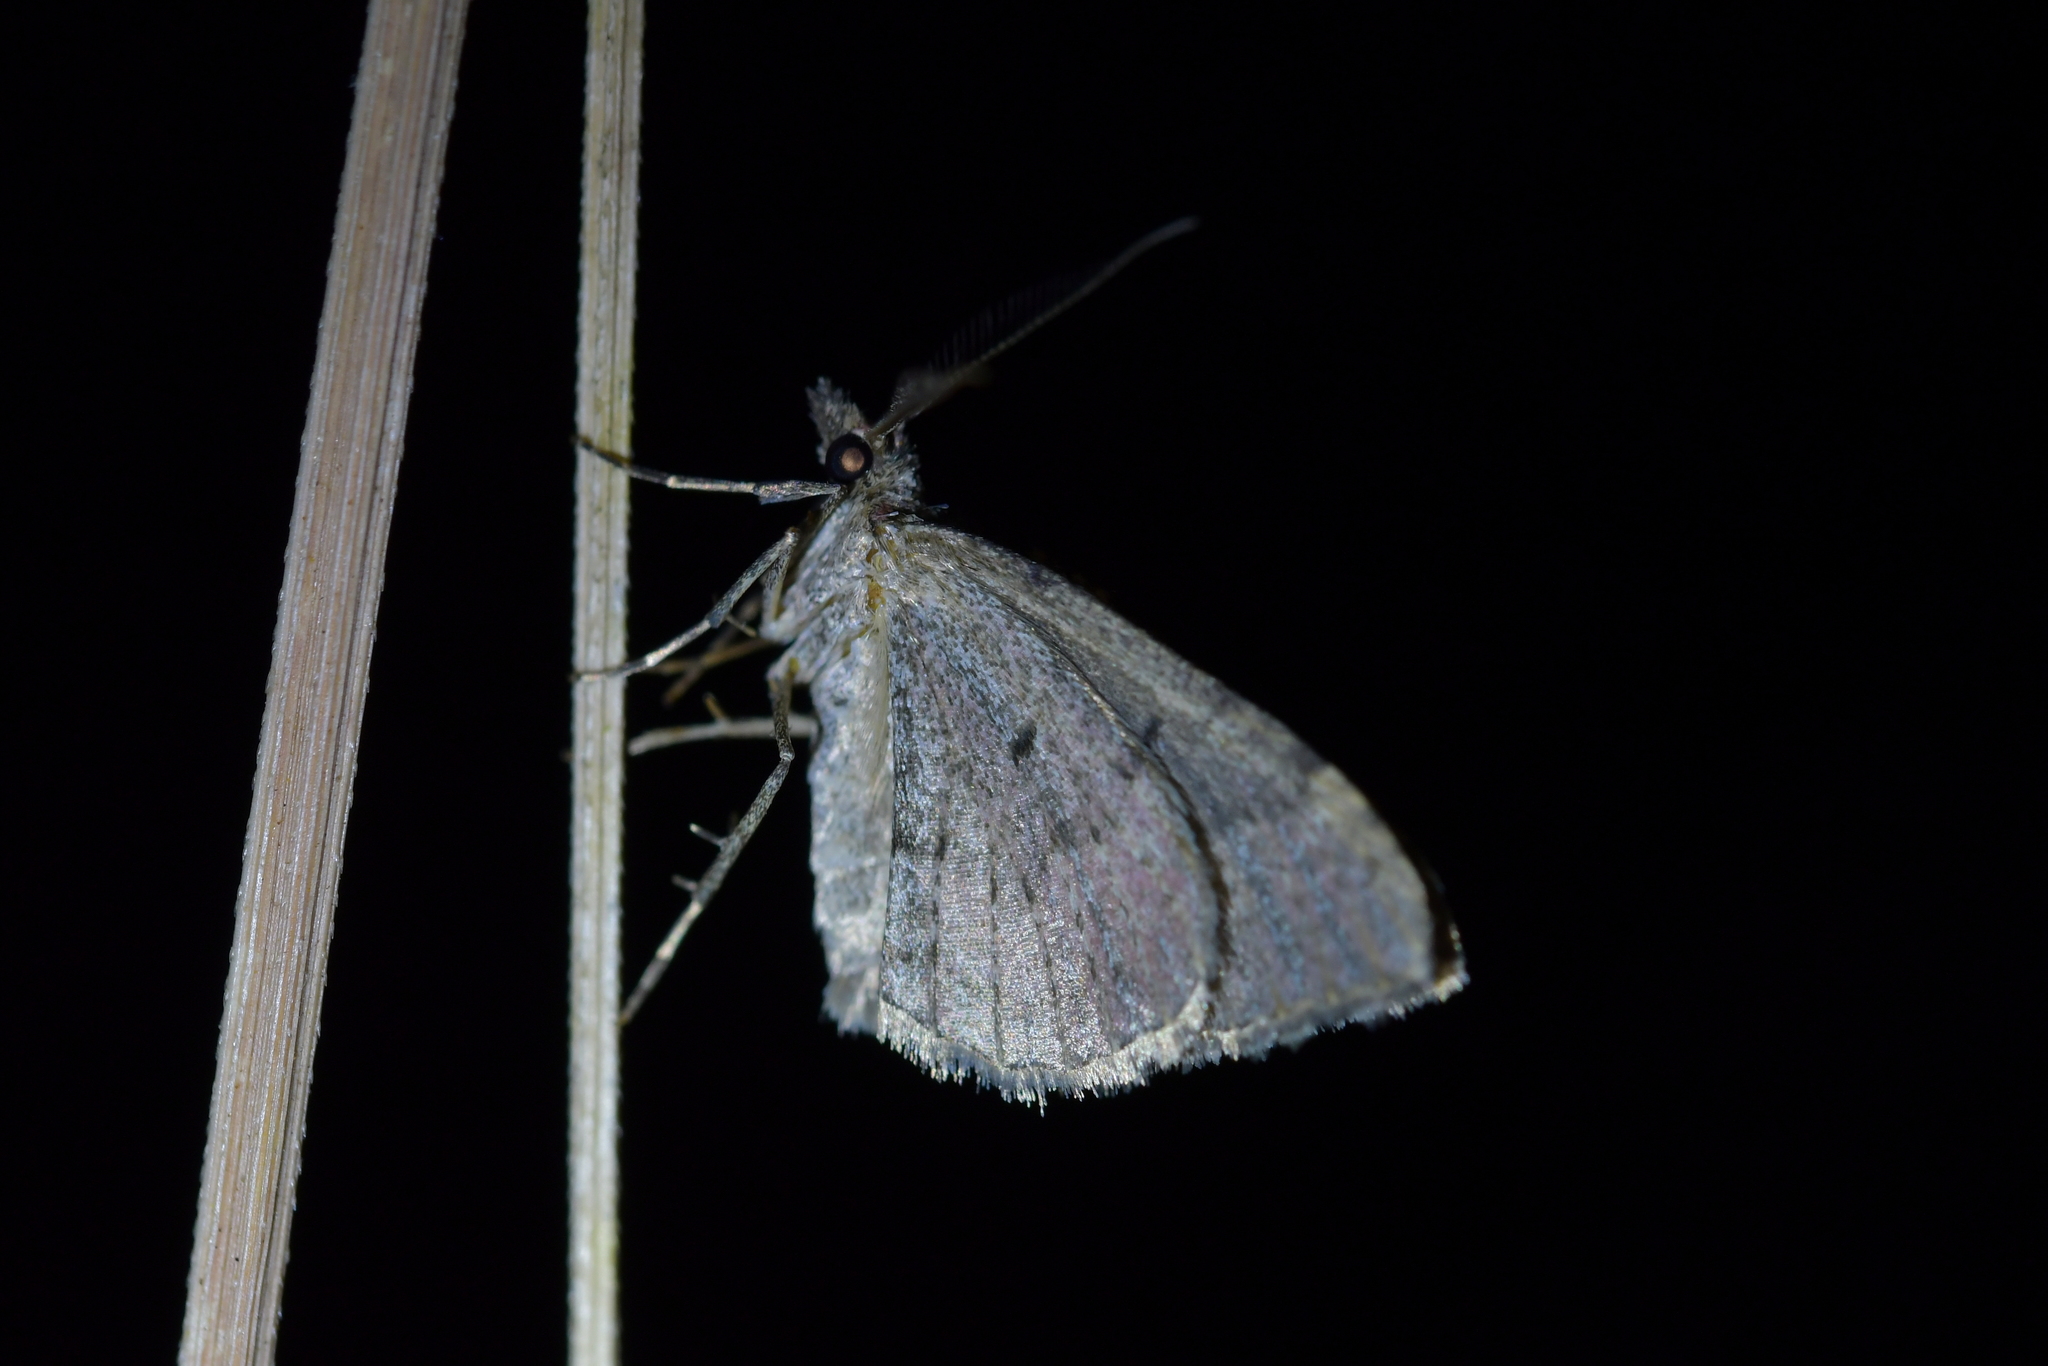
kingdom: Animalia
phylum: Arthropoda
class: Insecta
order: Lepidoptera
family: Geometridae
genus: Epyaxa
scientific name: Epyaxa rosearia
